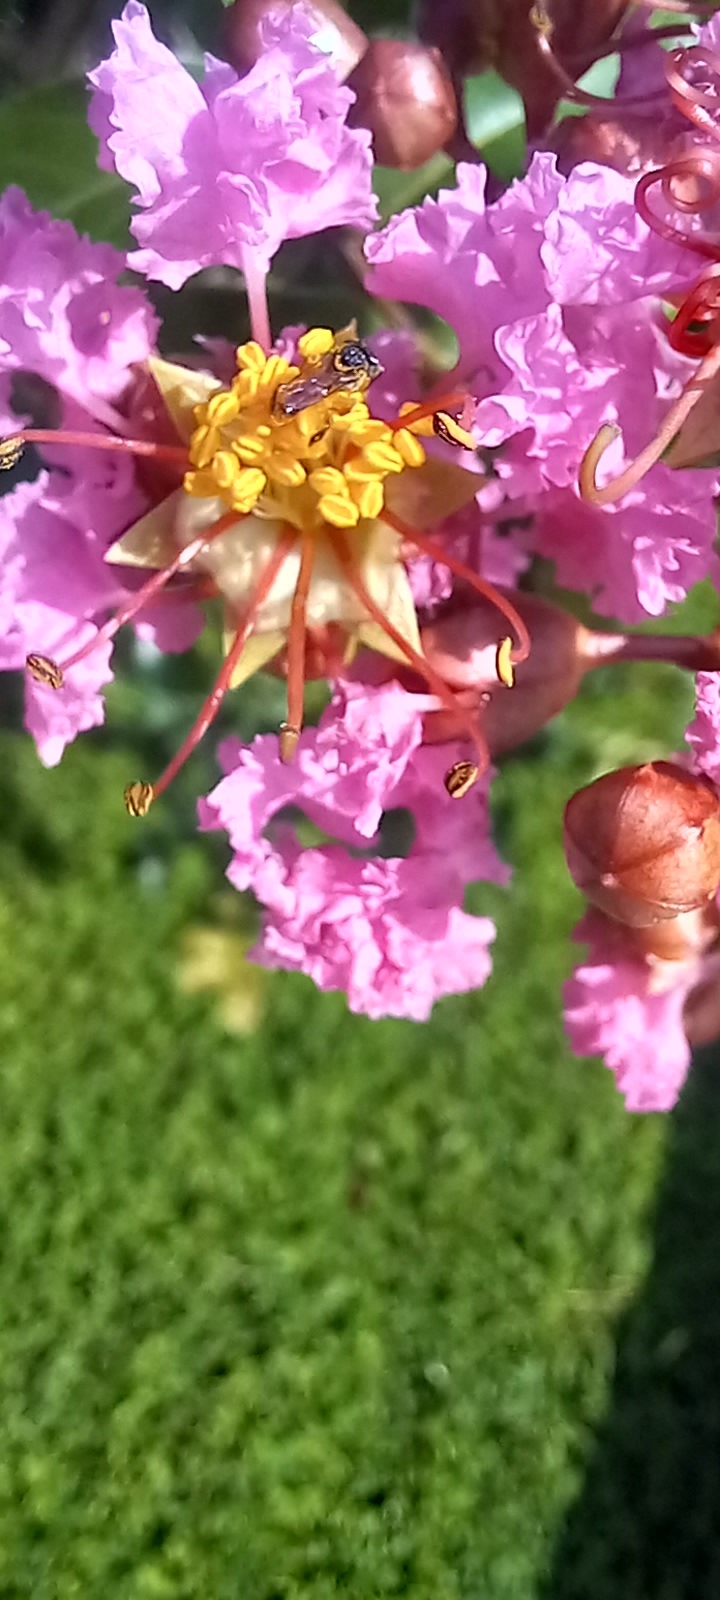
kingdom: Animalia
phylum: Arthropoda
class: Insecta
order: Hymenoptera
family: Apidae
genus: Tetragonisca
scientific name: Tetragonisca angustula
